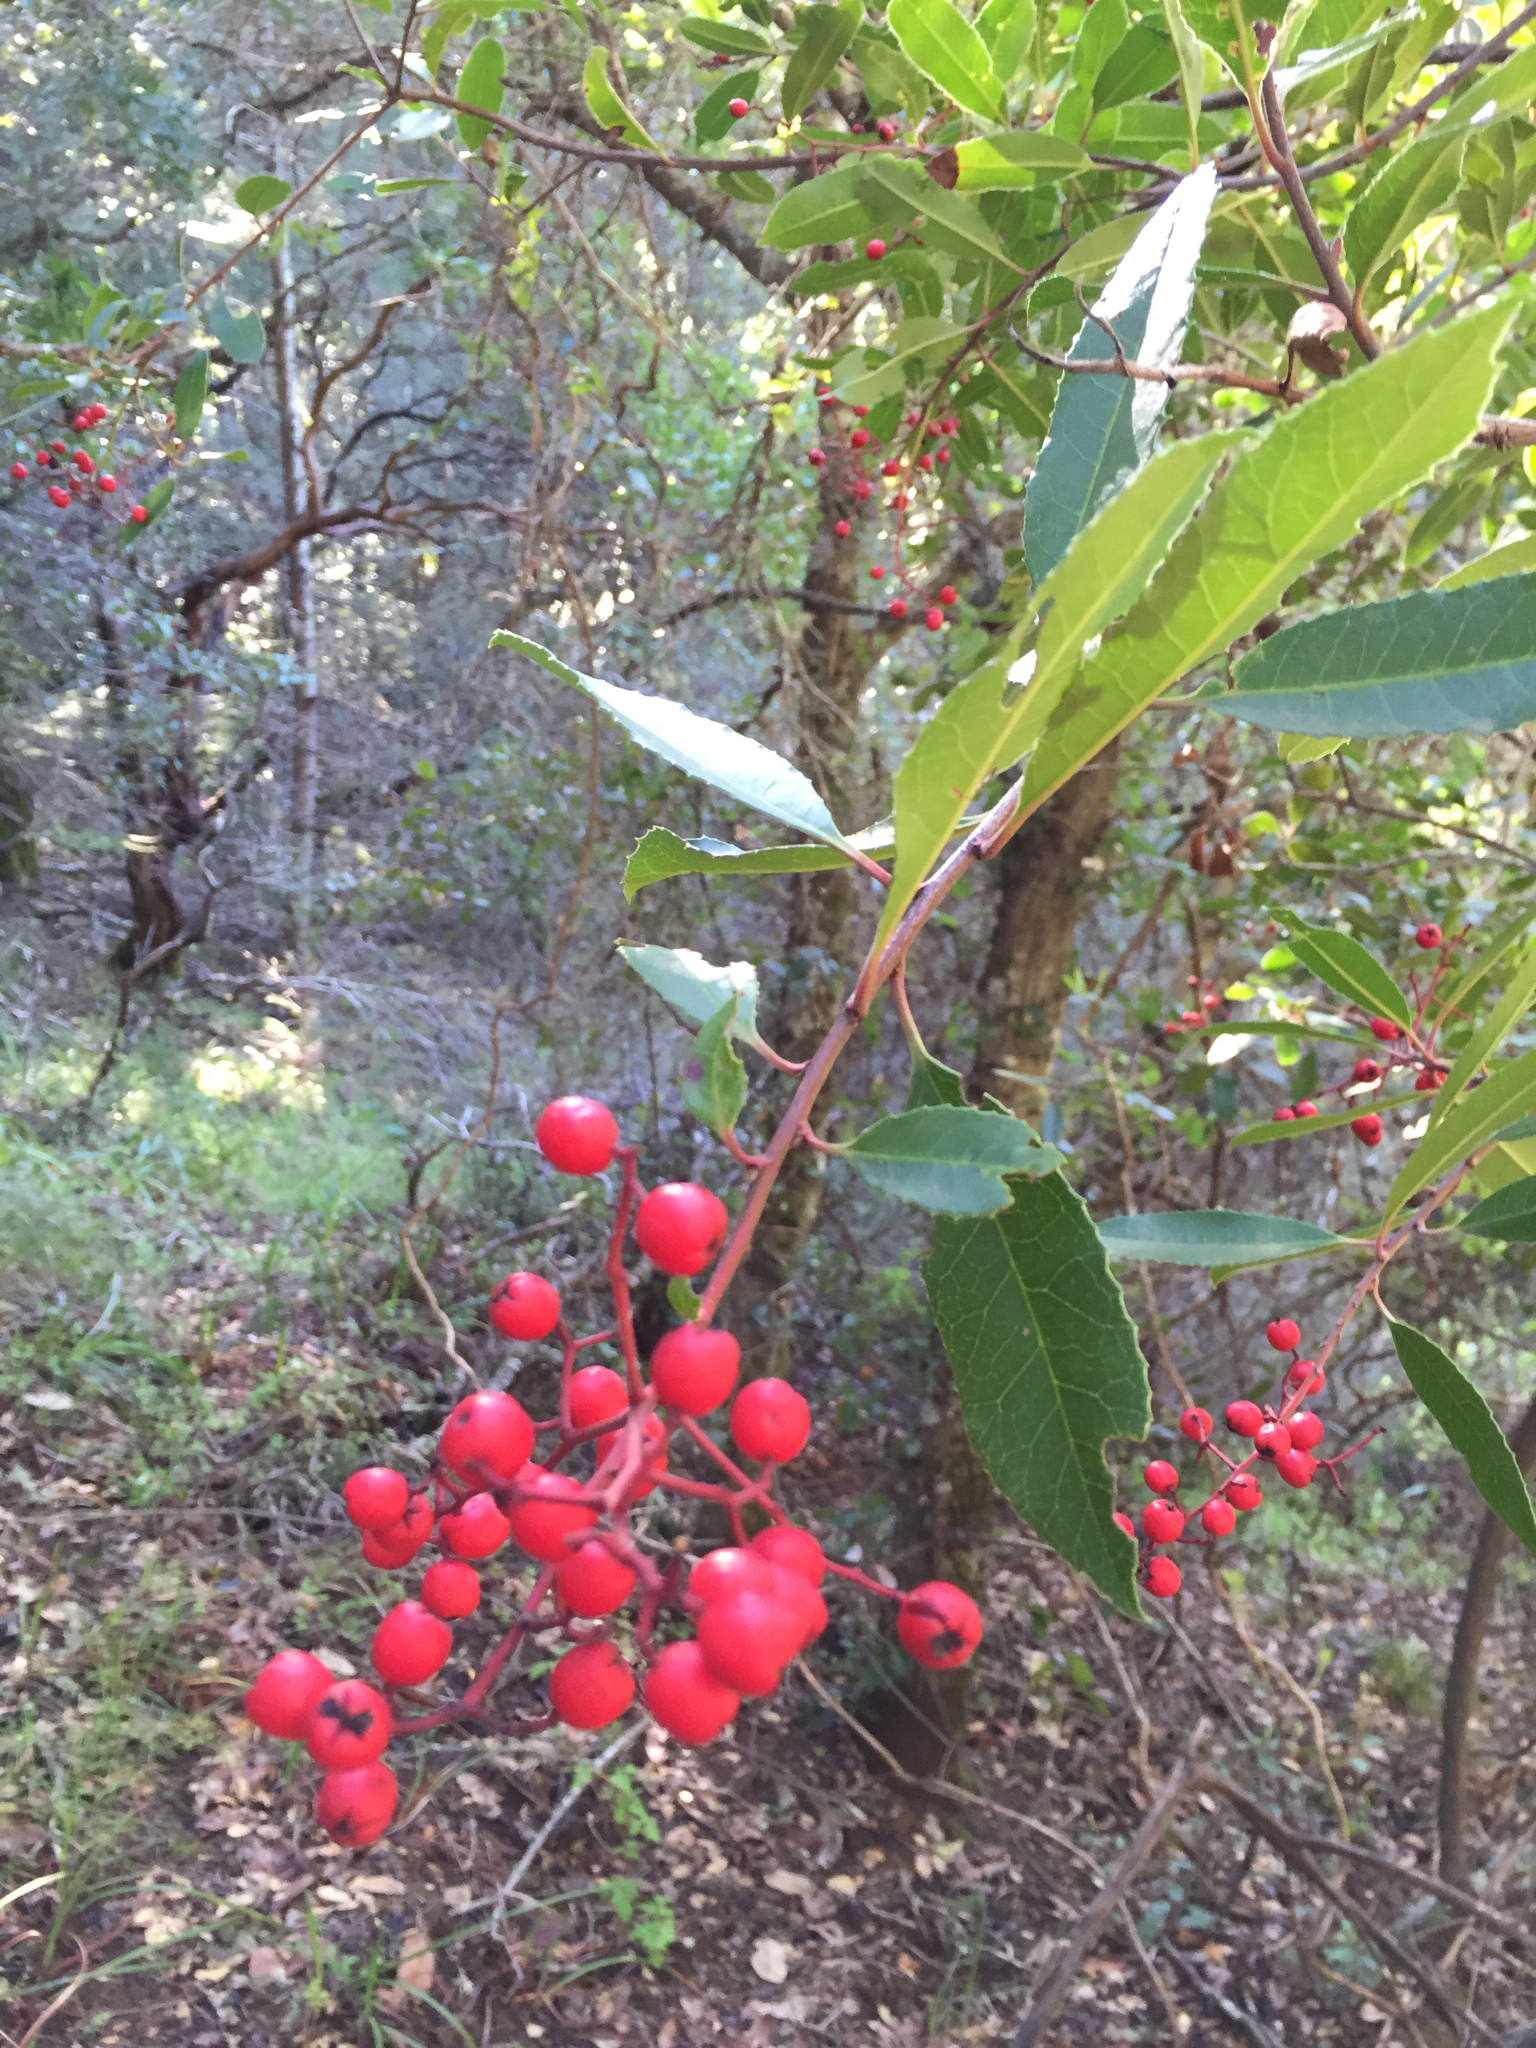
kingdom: Plantae
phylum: Tracheophyta
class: Magnoliopsida
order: Rosales
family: Rosaceae
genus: Heteromeles
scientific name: Heteromeles arbutifolia
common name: California-holly
